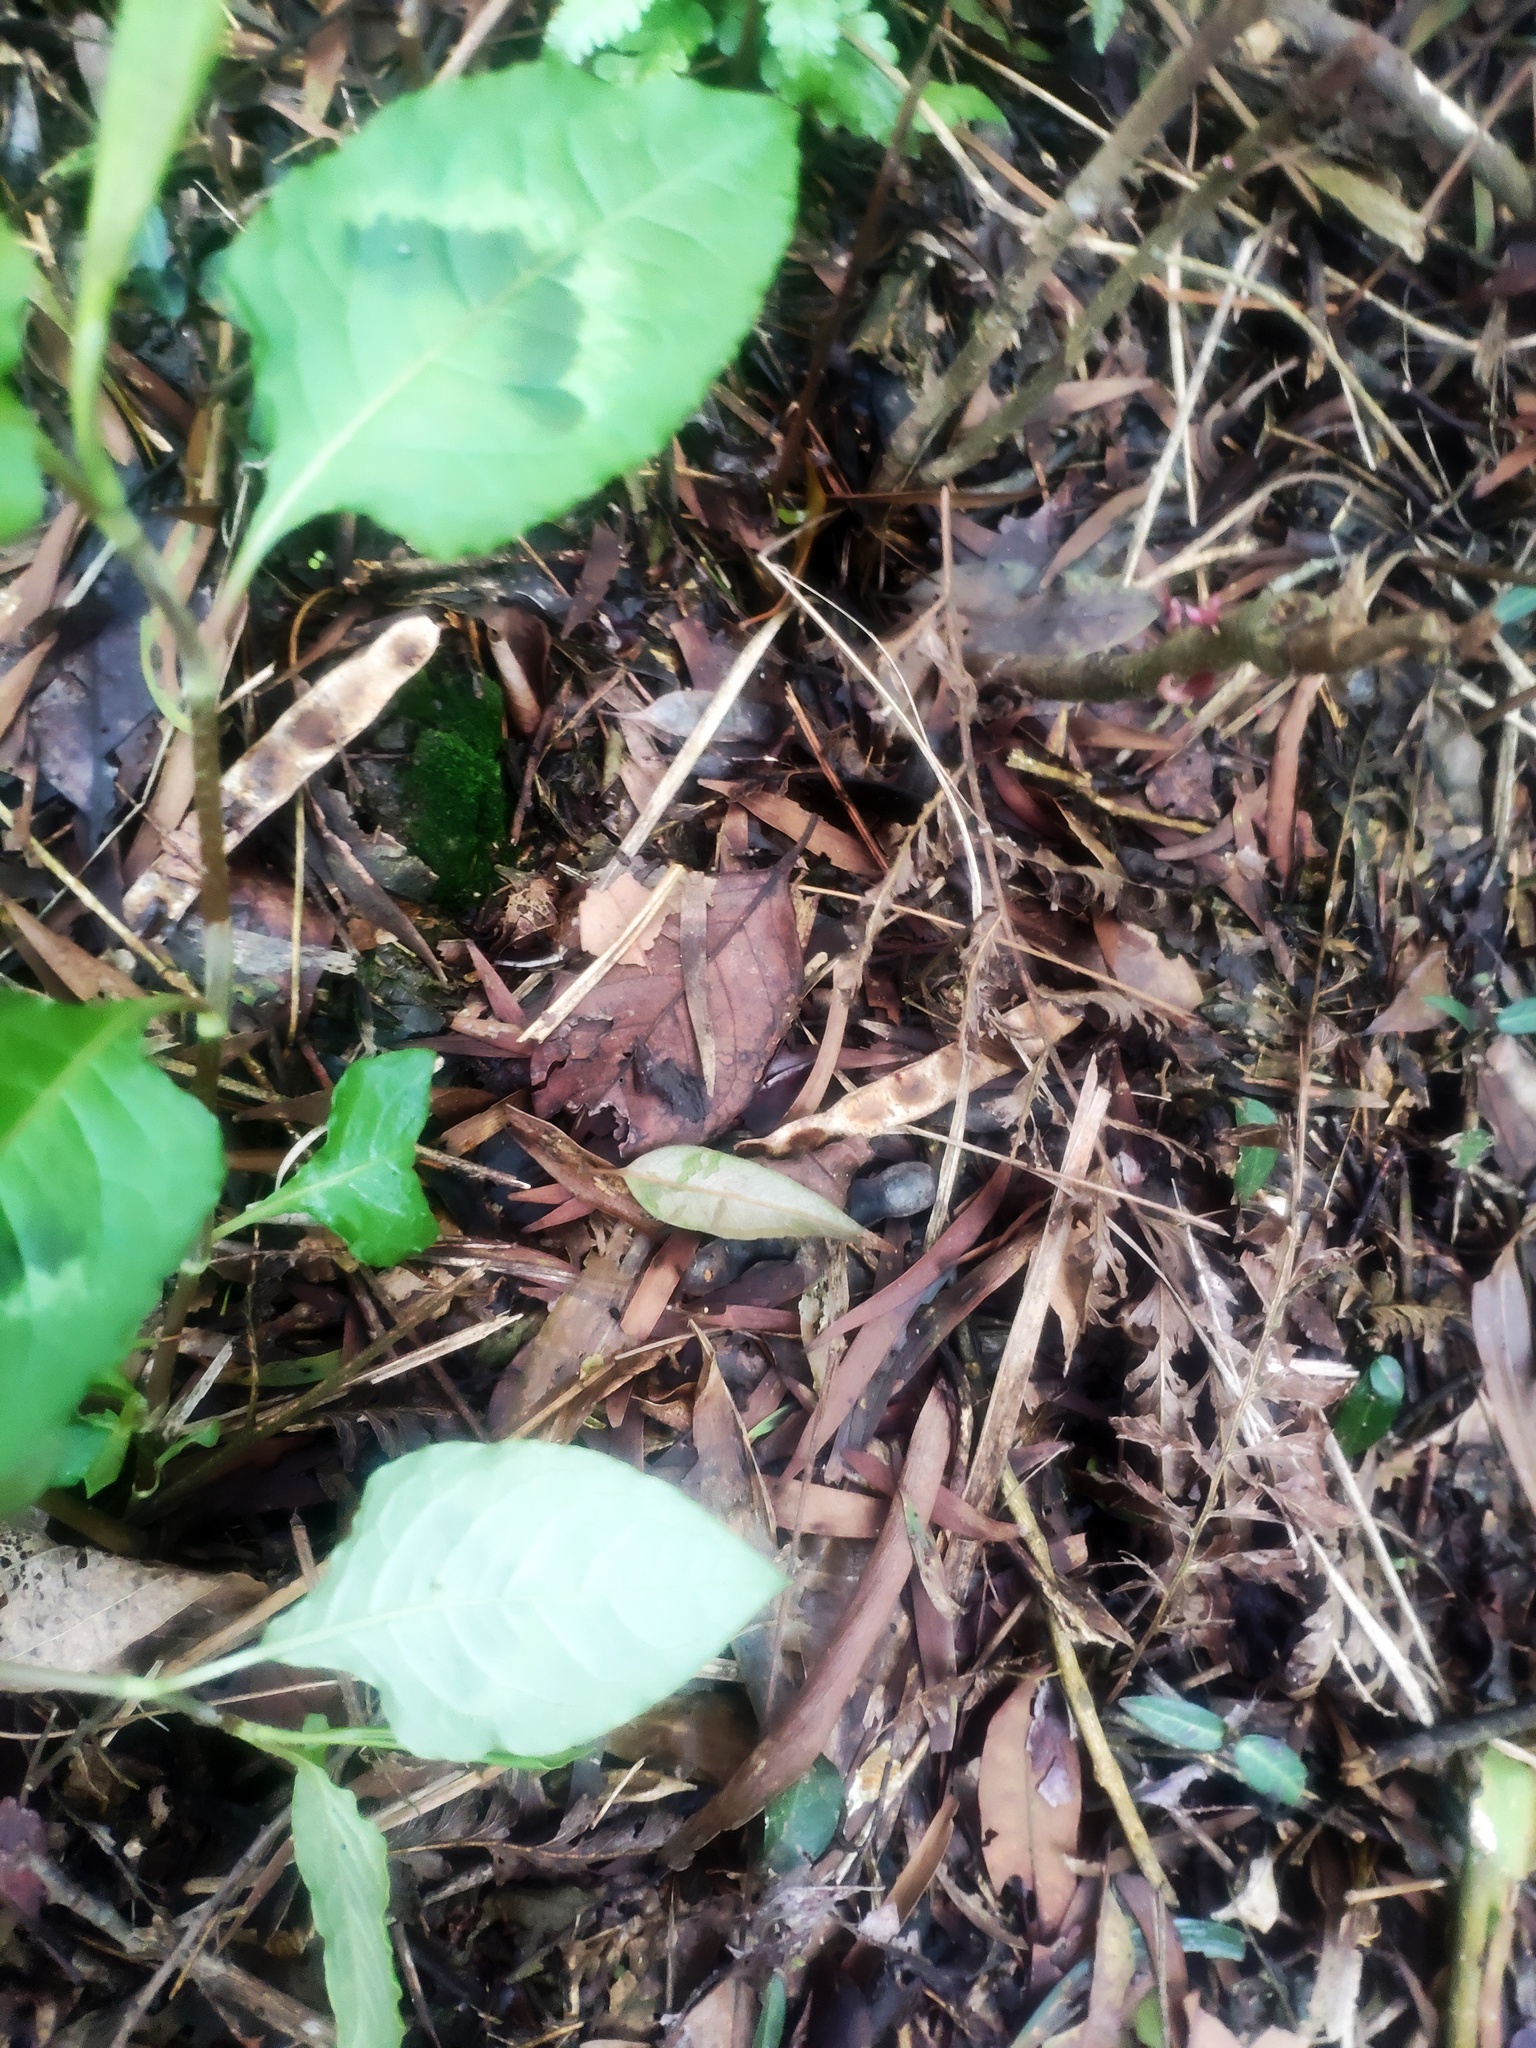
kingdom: Plantae
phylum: Tracheophyta
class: Magnoliopsida
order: Caryophyllales
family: Polygonaceae
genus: Persicaria
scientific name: Persicaria chinensis
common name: Chinese knotweed
